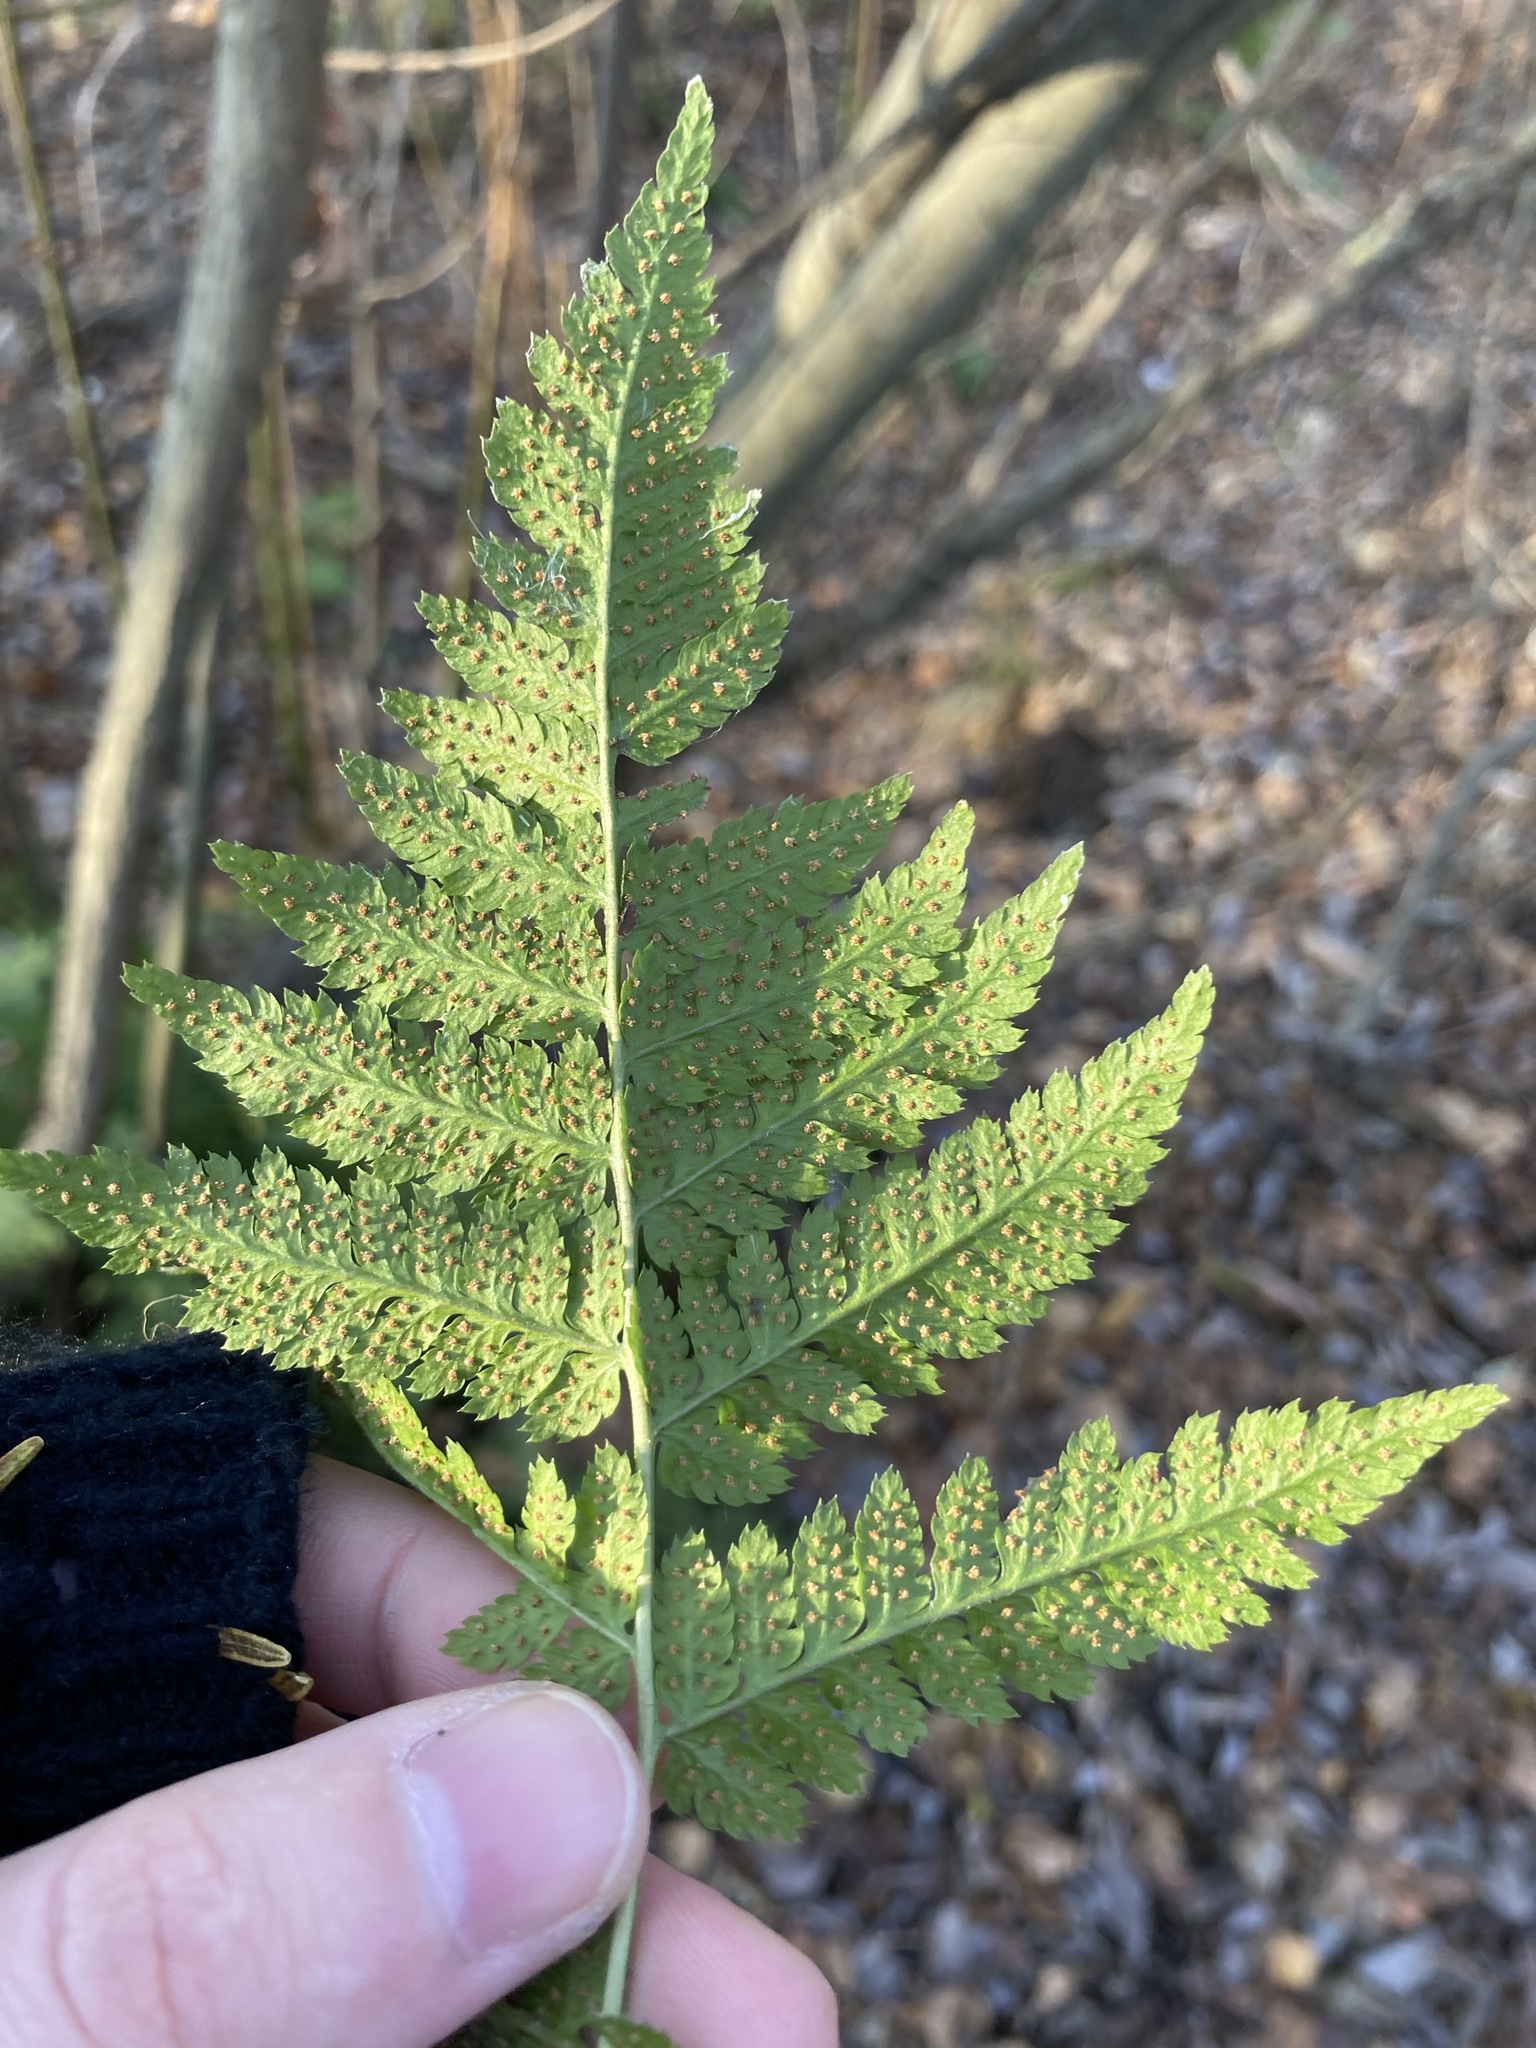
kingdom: Plantae
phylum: Tracheophyta
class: Polypodiopsida
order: Polypodiales
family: Dryopteridaceae
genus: Dryopteris
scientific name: Dryopteris carthusiana
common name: Narrow buckler-fern
